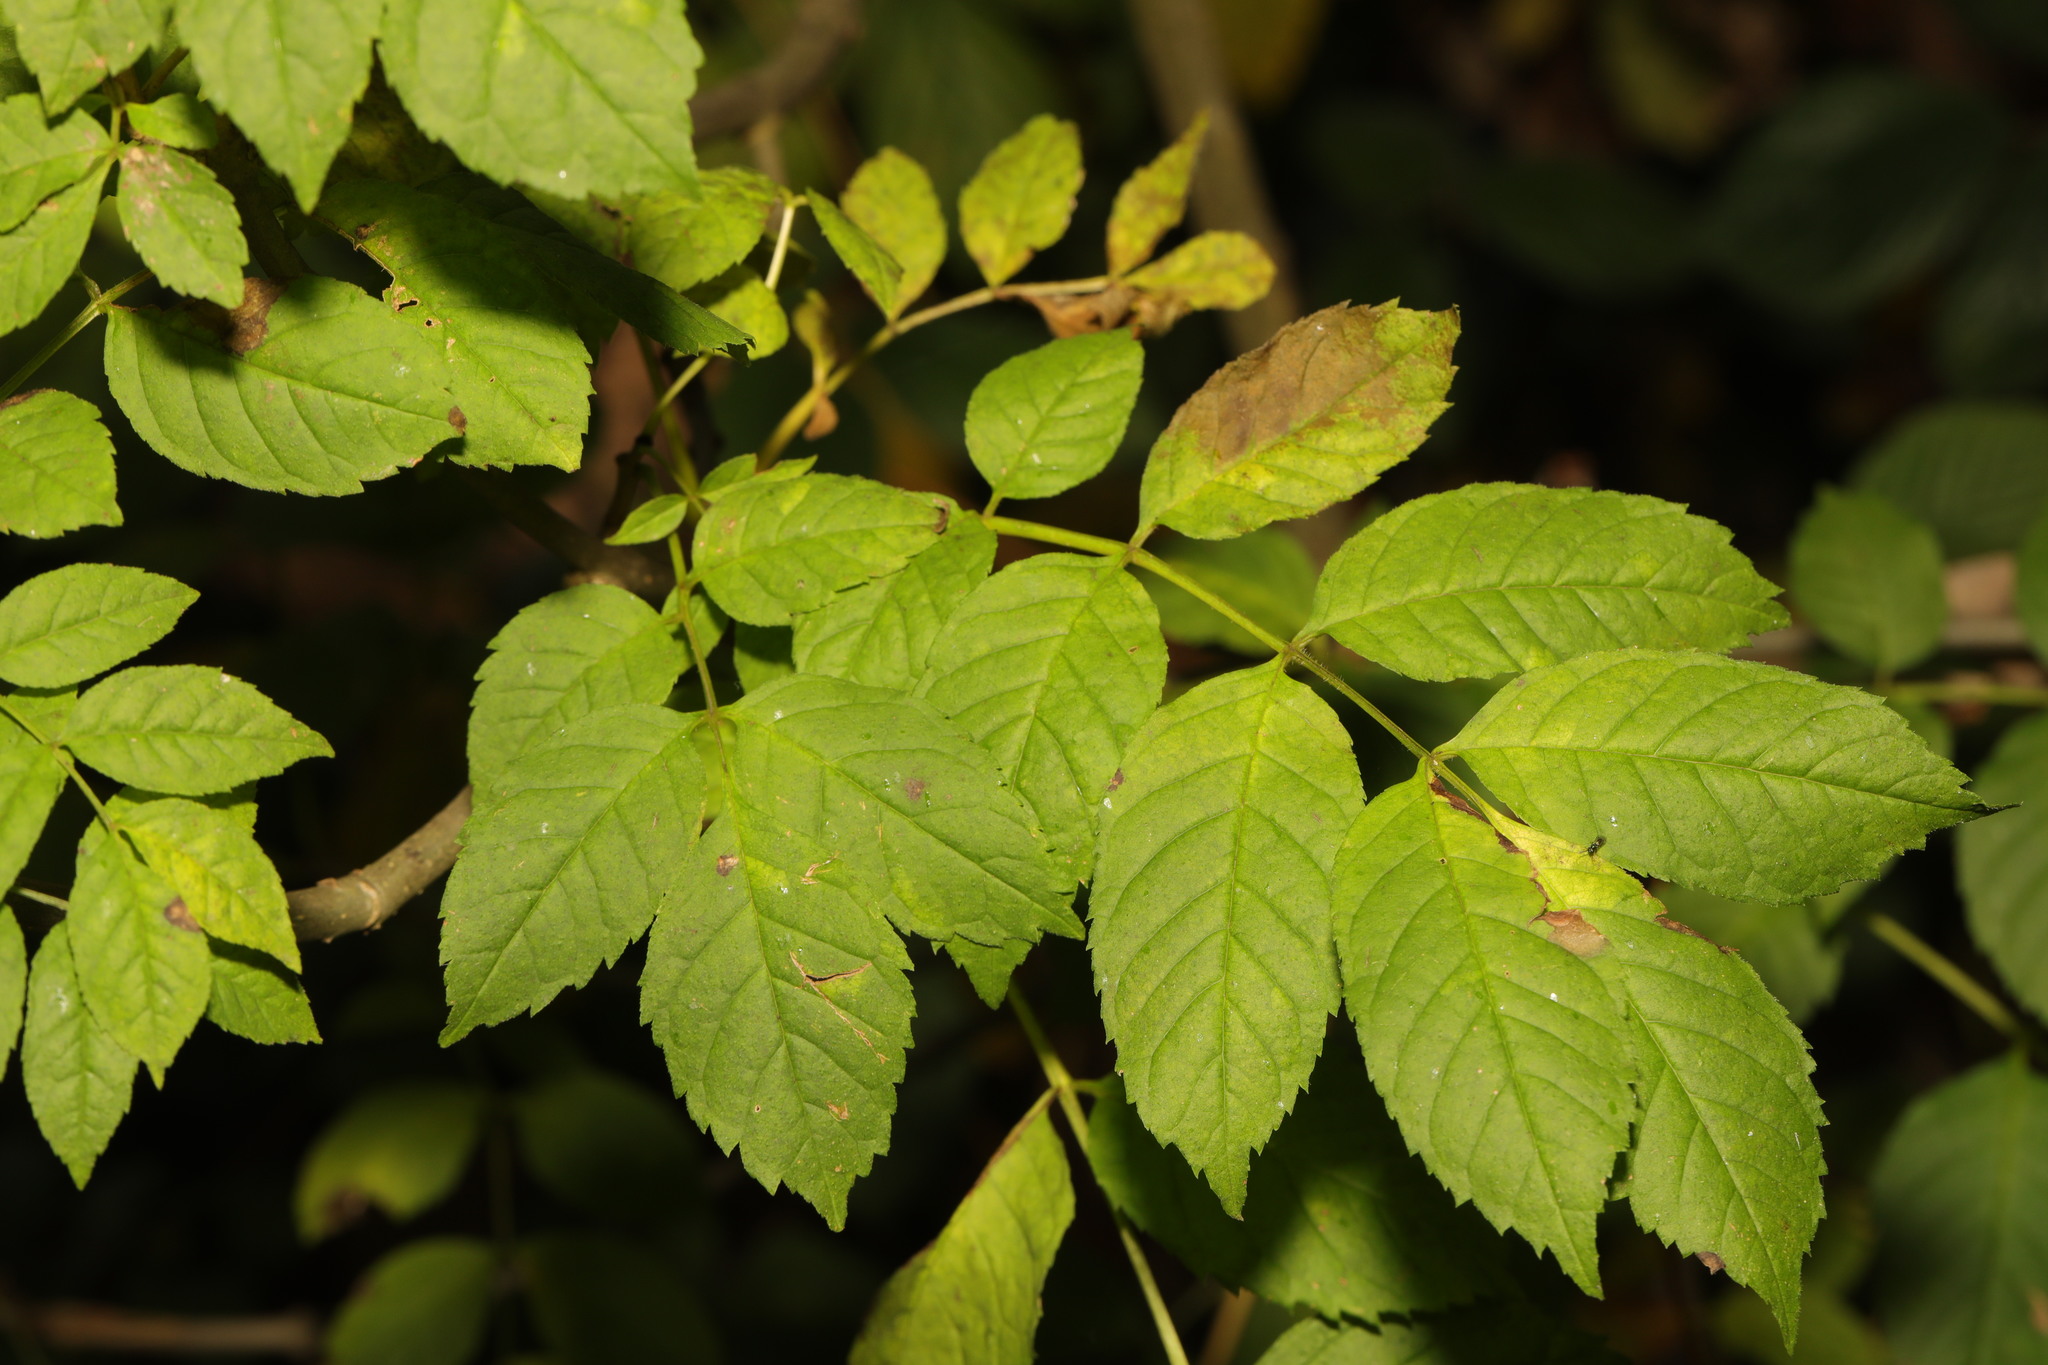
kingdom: Plantae
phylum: Tracheophyta
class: Magnoliopsida
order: Lamiales
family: Oleaceae
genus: Fraxinus
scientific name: Fraxinus excelsior
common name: European ash
